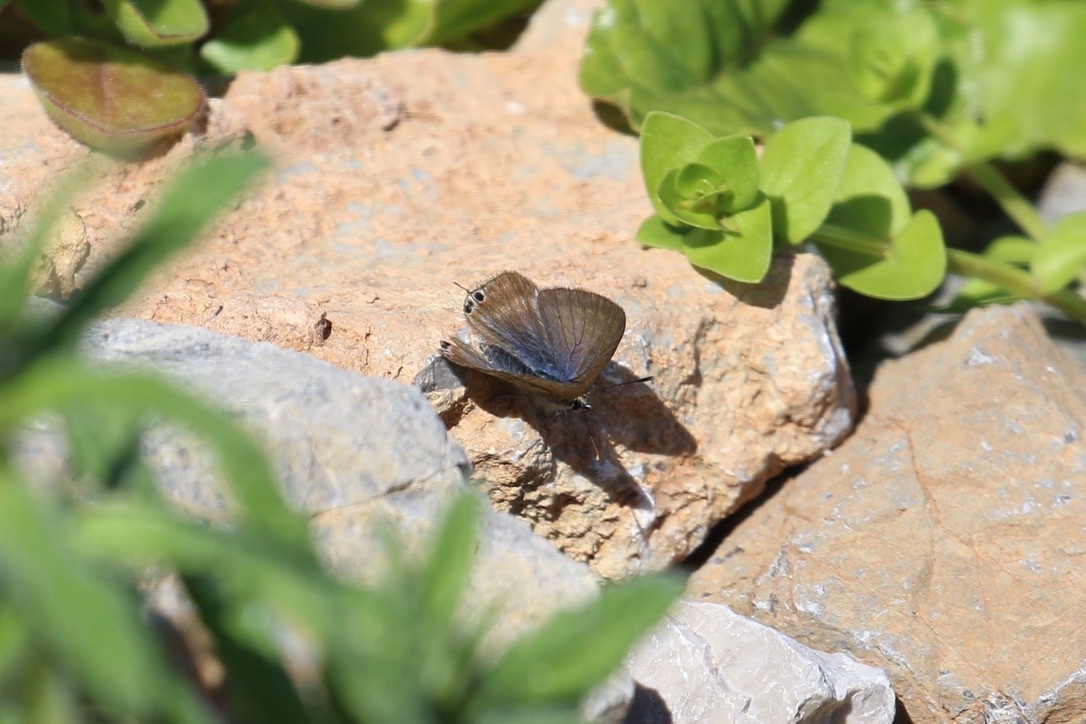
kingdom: Animalia
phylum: Arthropoda
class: Insecta
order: Lepidoptera
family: Lycaenidae
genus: Lampides
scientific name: Lampides boeticus
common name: Long-tailed blue
